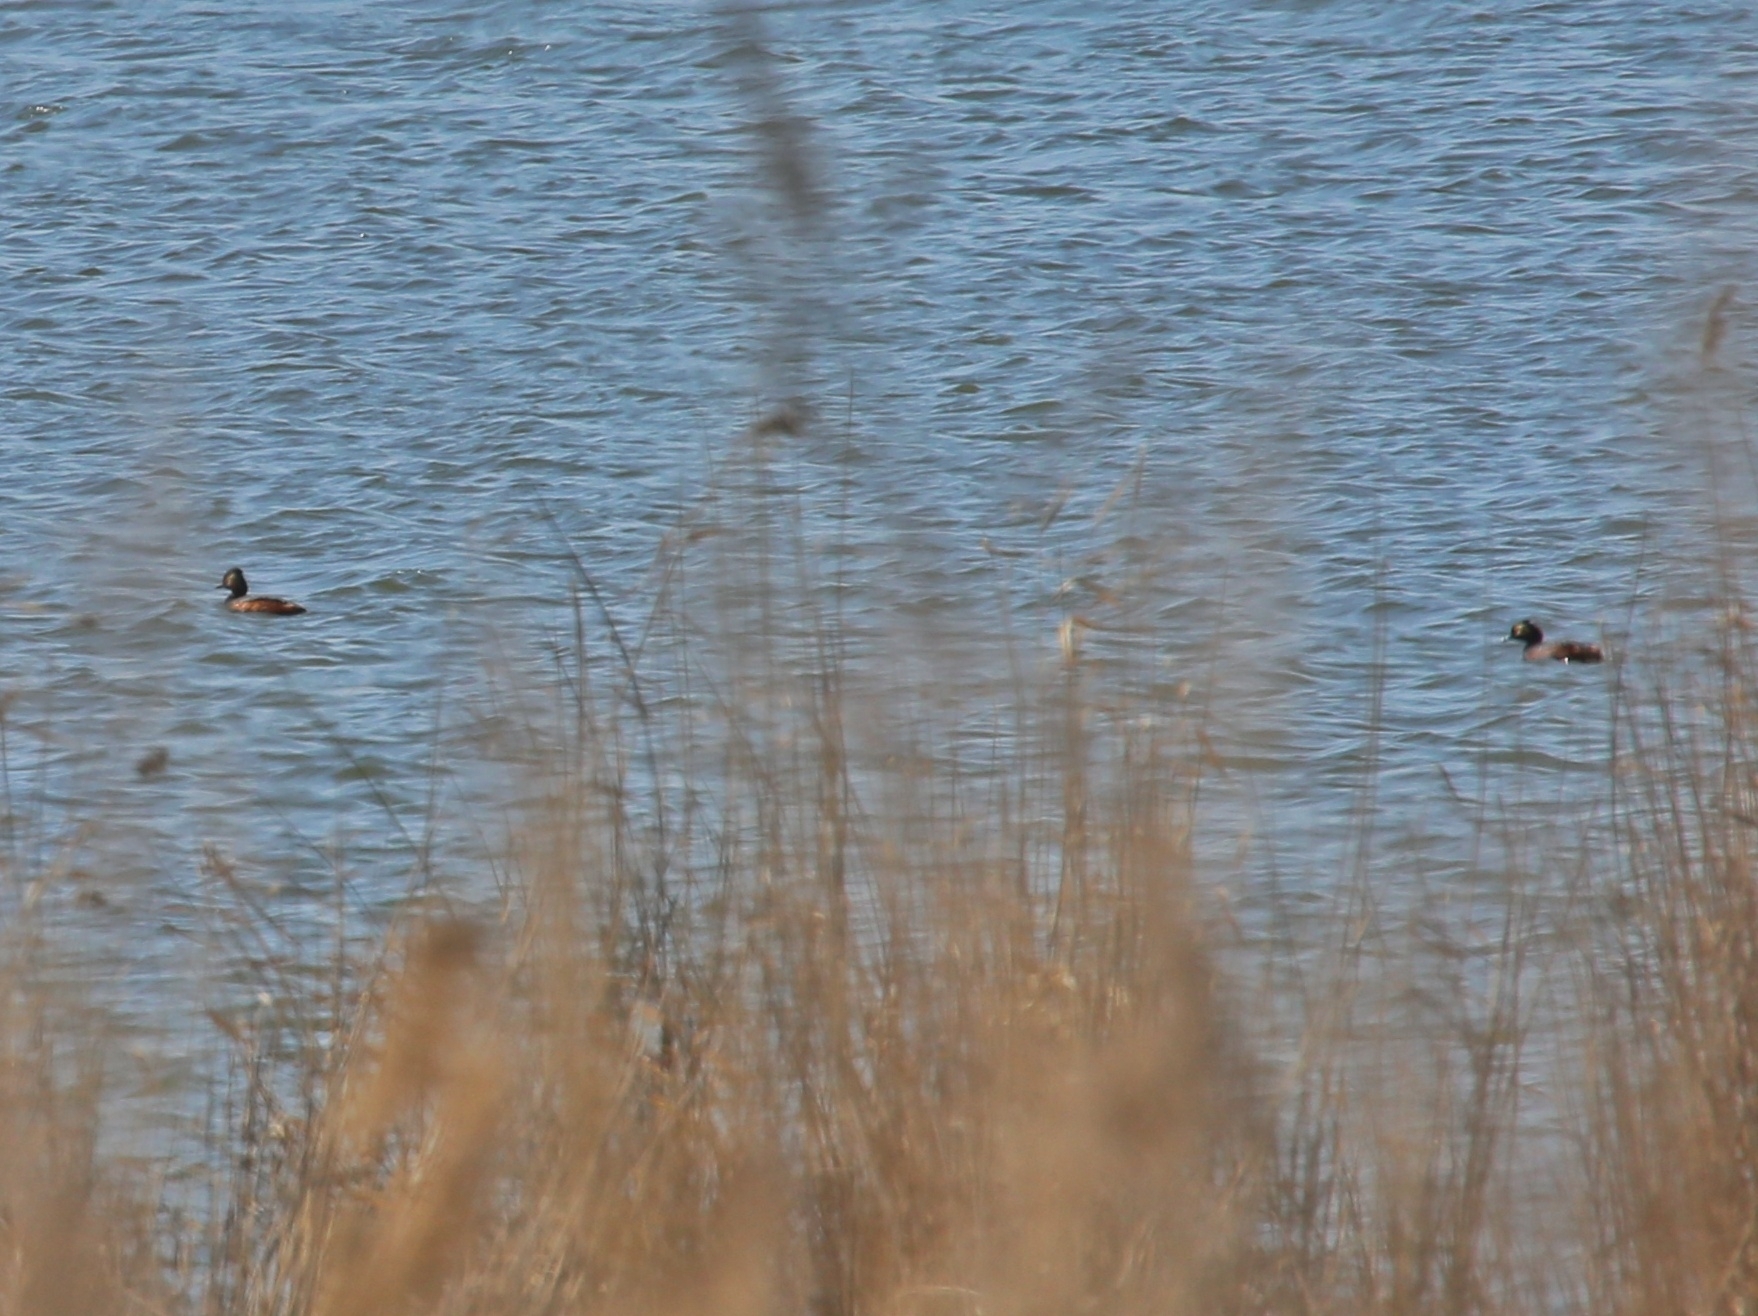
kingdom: Animalia
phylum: Chordata
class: Aves
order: Podicipediformes
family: Podicipedidae
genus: Podiceps
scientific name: Podiceps nigricollis
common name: Black-necked grebe
